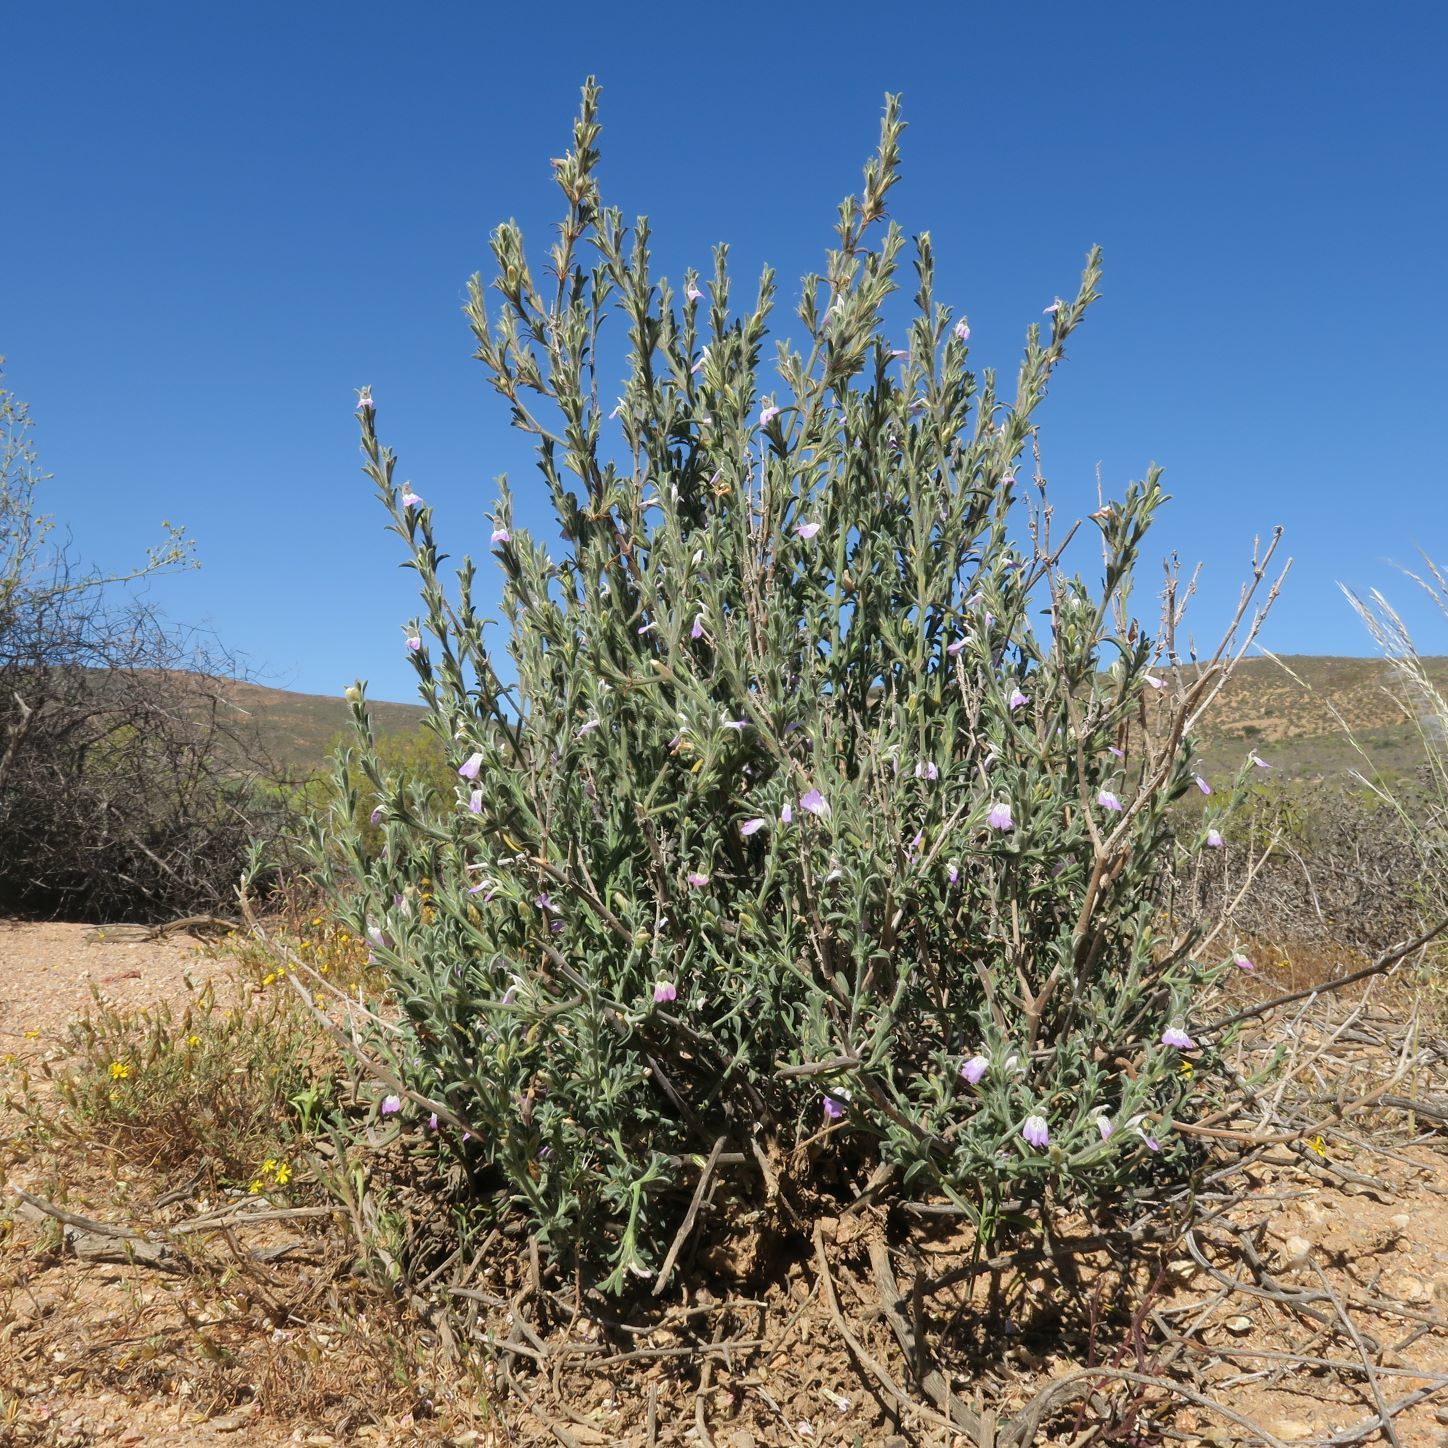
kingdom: Plantae
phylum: Tracheophyta
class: Magnoliopsida
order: Lamiales
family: Acanthaceae
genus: Pogonospermum
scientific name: Pogonospermum
